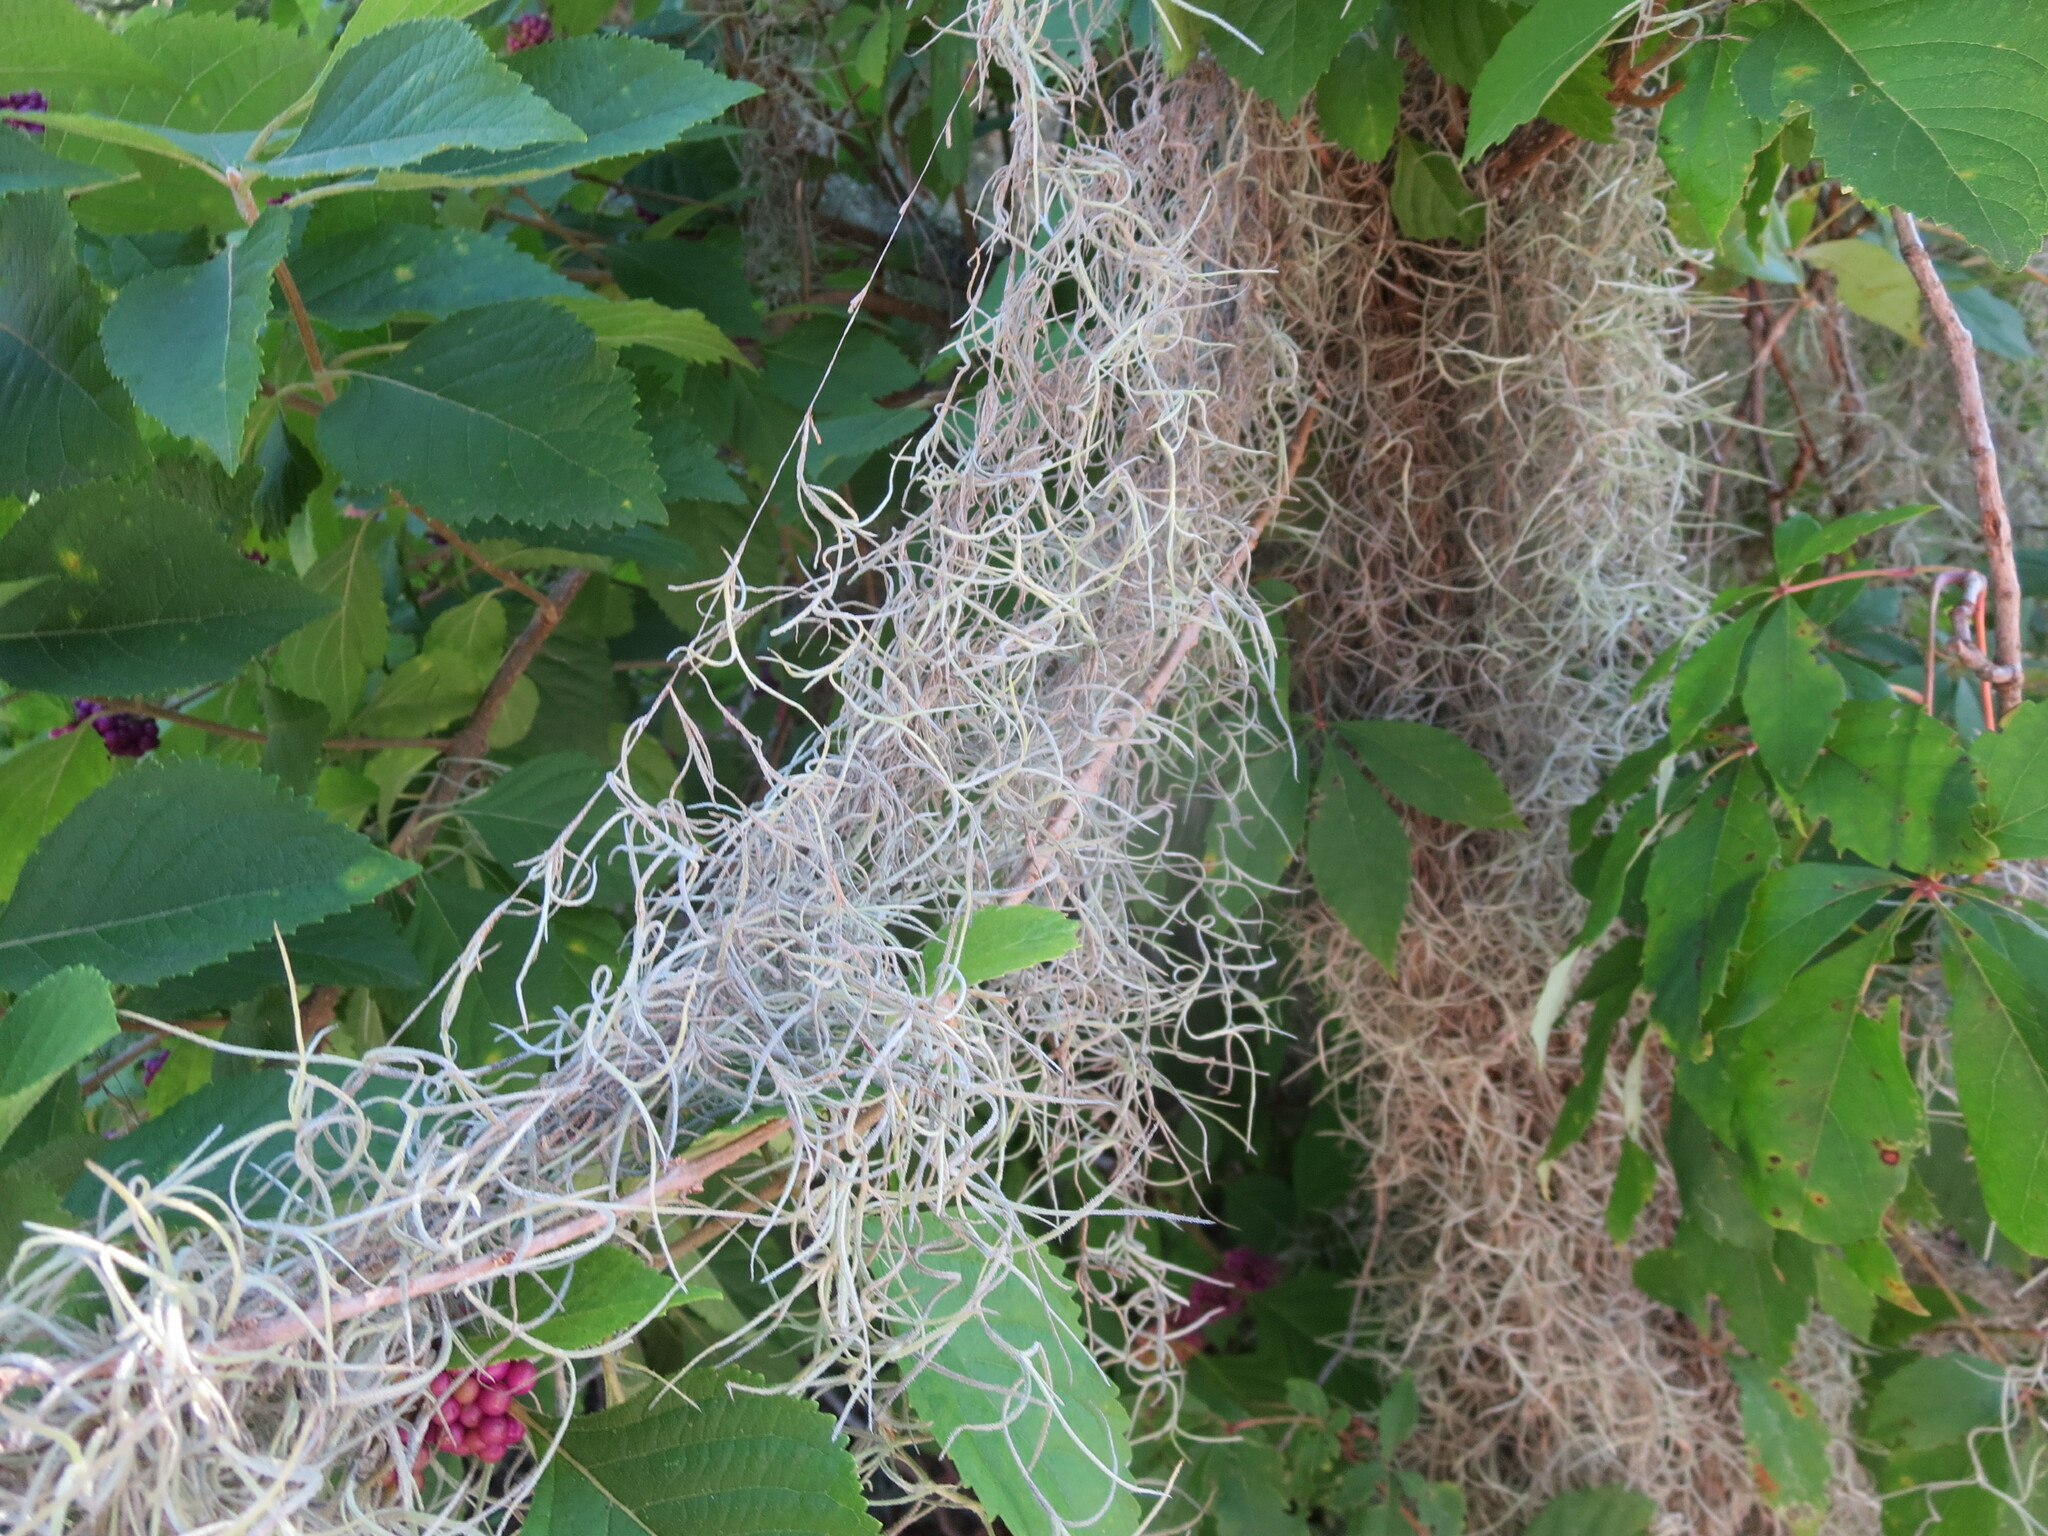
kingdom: Plantae
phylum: Tracheophyta
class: Liliopsida
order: Poales
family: Bromeliaceae
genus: Tillandsia
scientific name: Tillandsia usneoides
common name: Spanish moss
